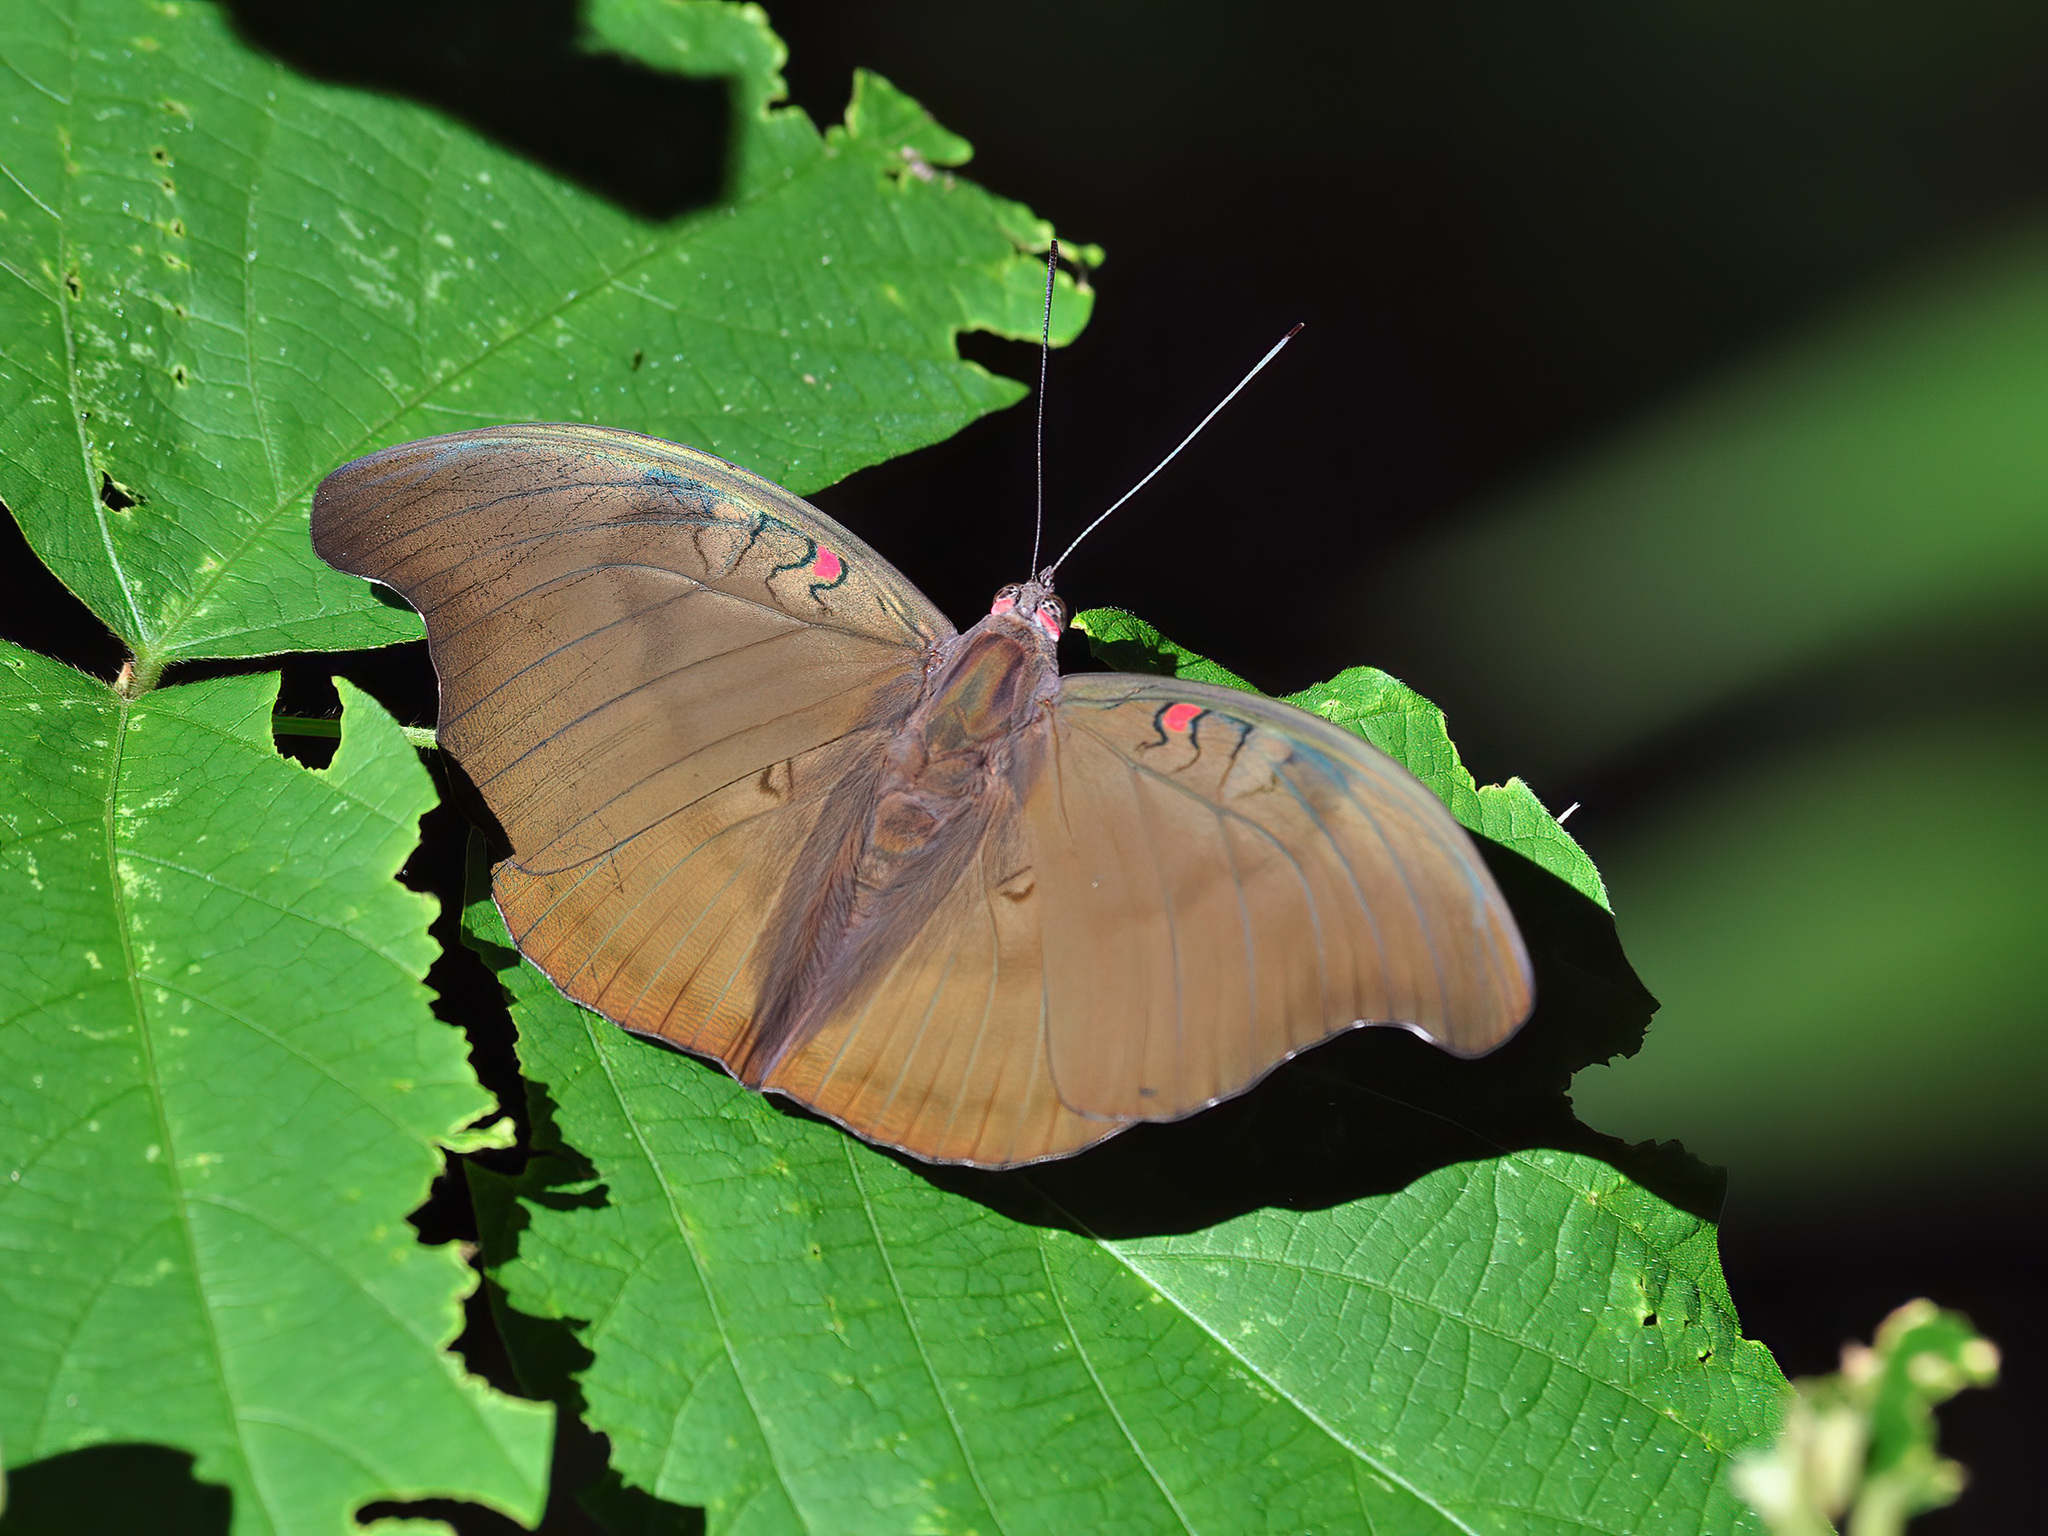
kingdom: Animalia
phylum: Arthropoda
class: Insecta
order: Lepidoptera
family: Nymphalidae
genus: Euthalia
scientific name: Euthalia Dophla evelina
